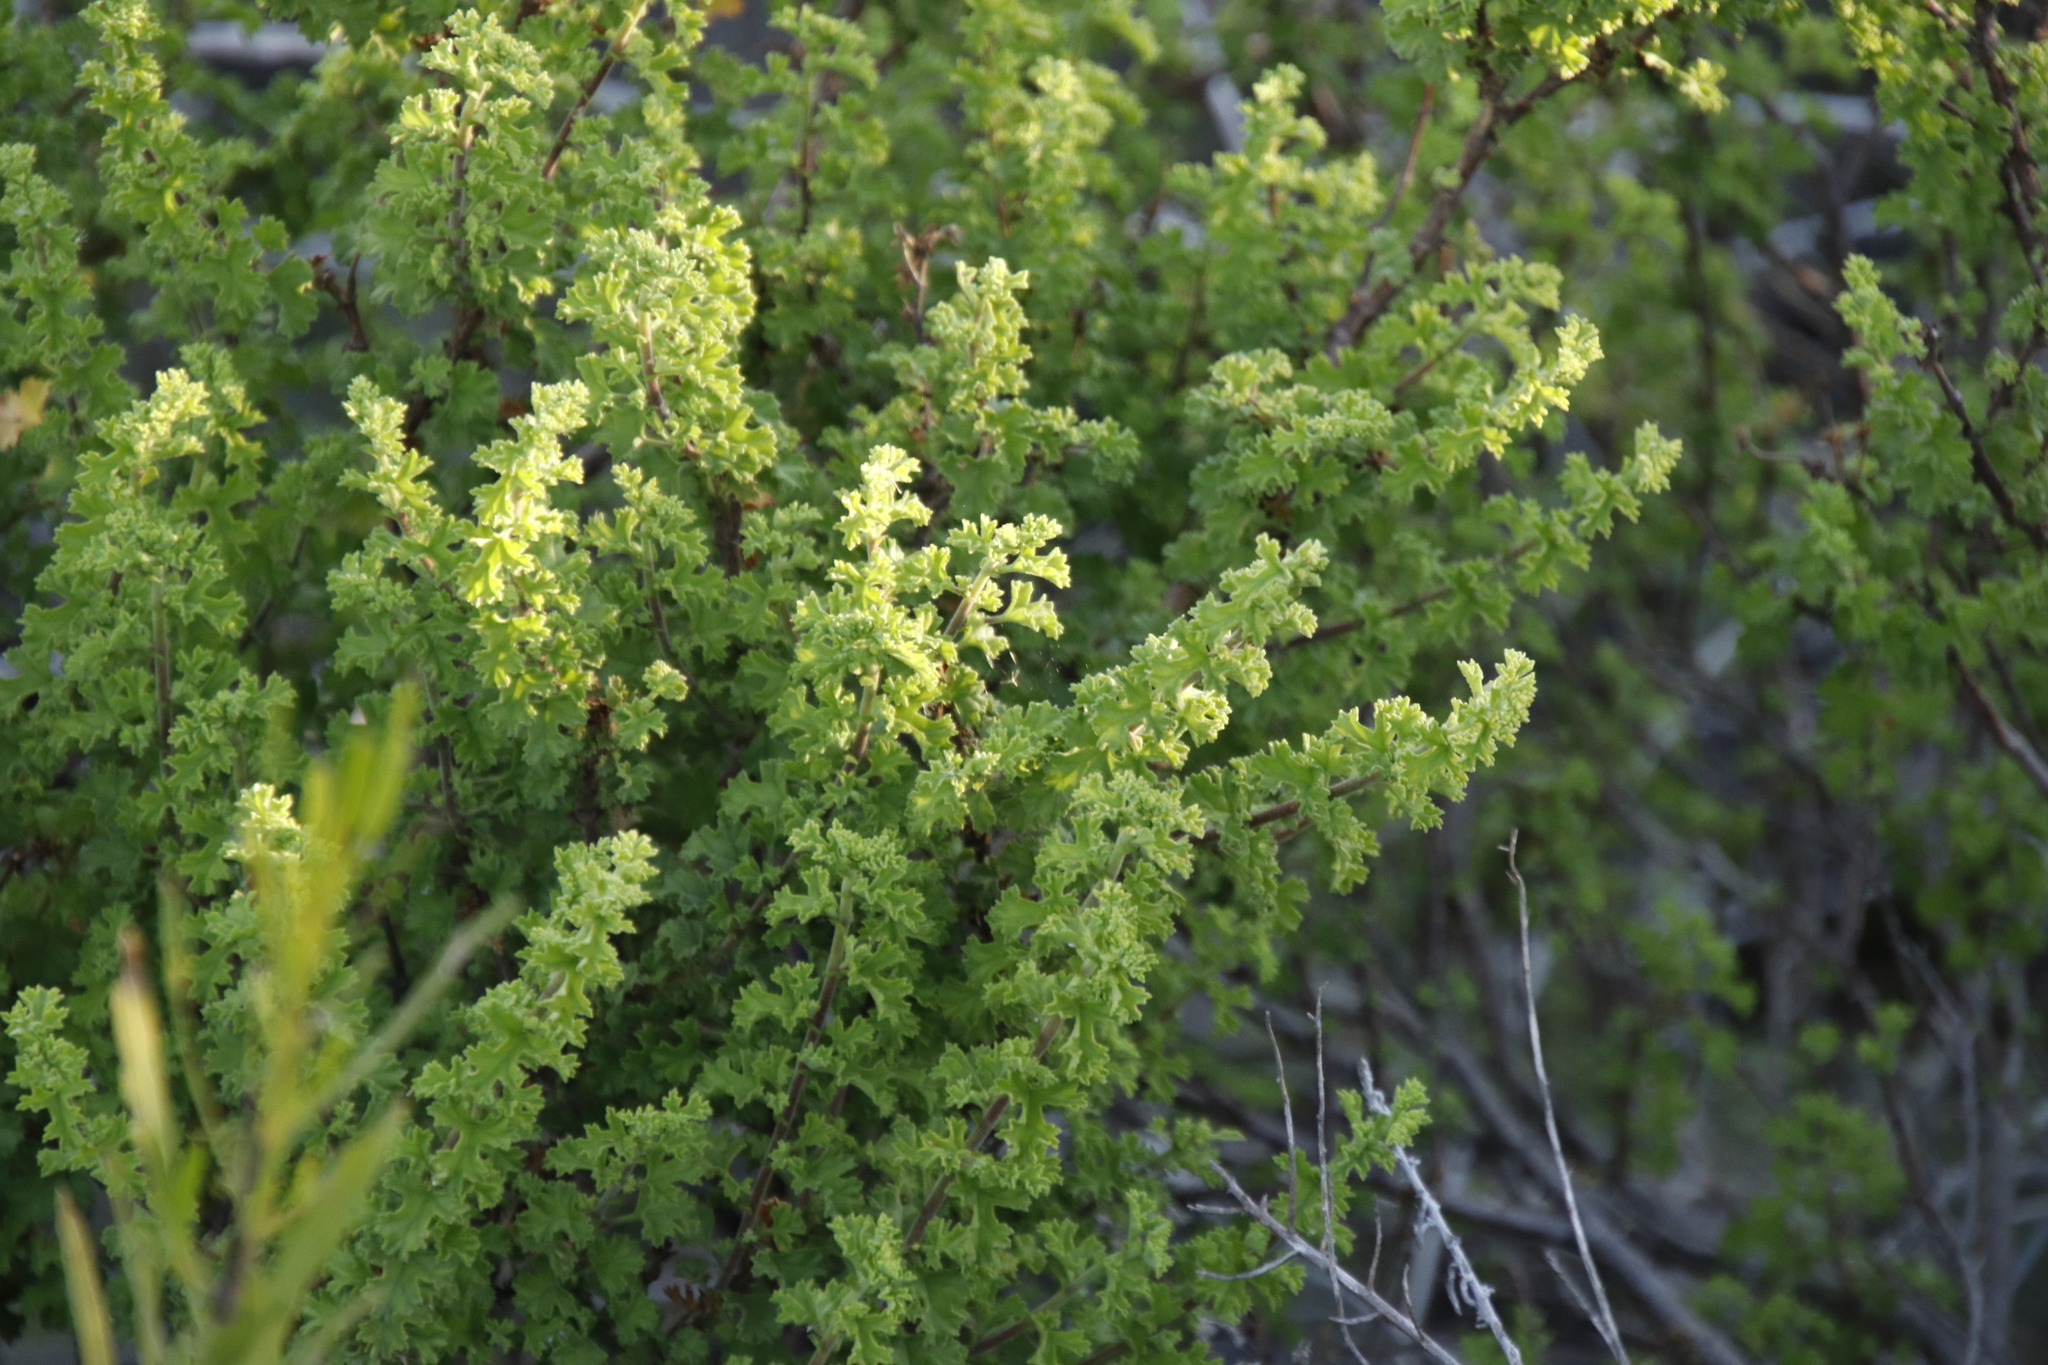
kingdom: Plantae
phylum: Tracheophyta
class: Magnoliopsida
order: Geraniales
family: Geraniaceae
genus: Pelargonium
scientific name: Pelargonium crispum
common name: Crisped-leaf pelargonium
